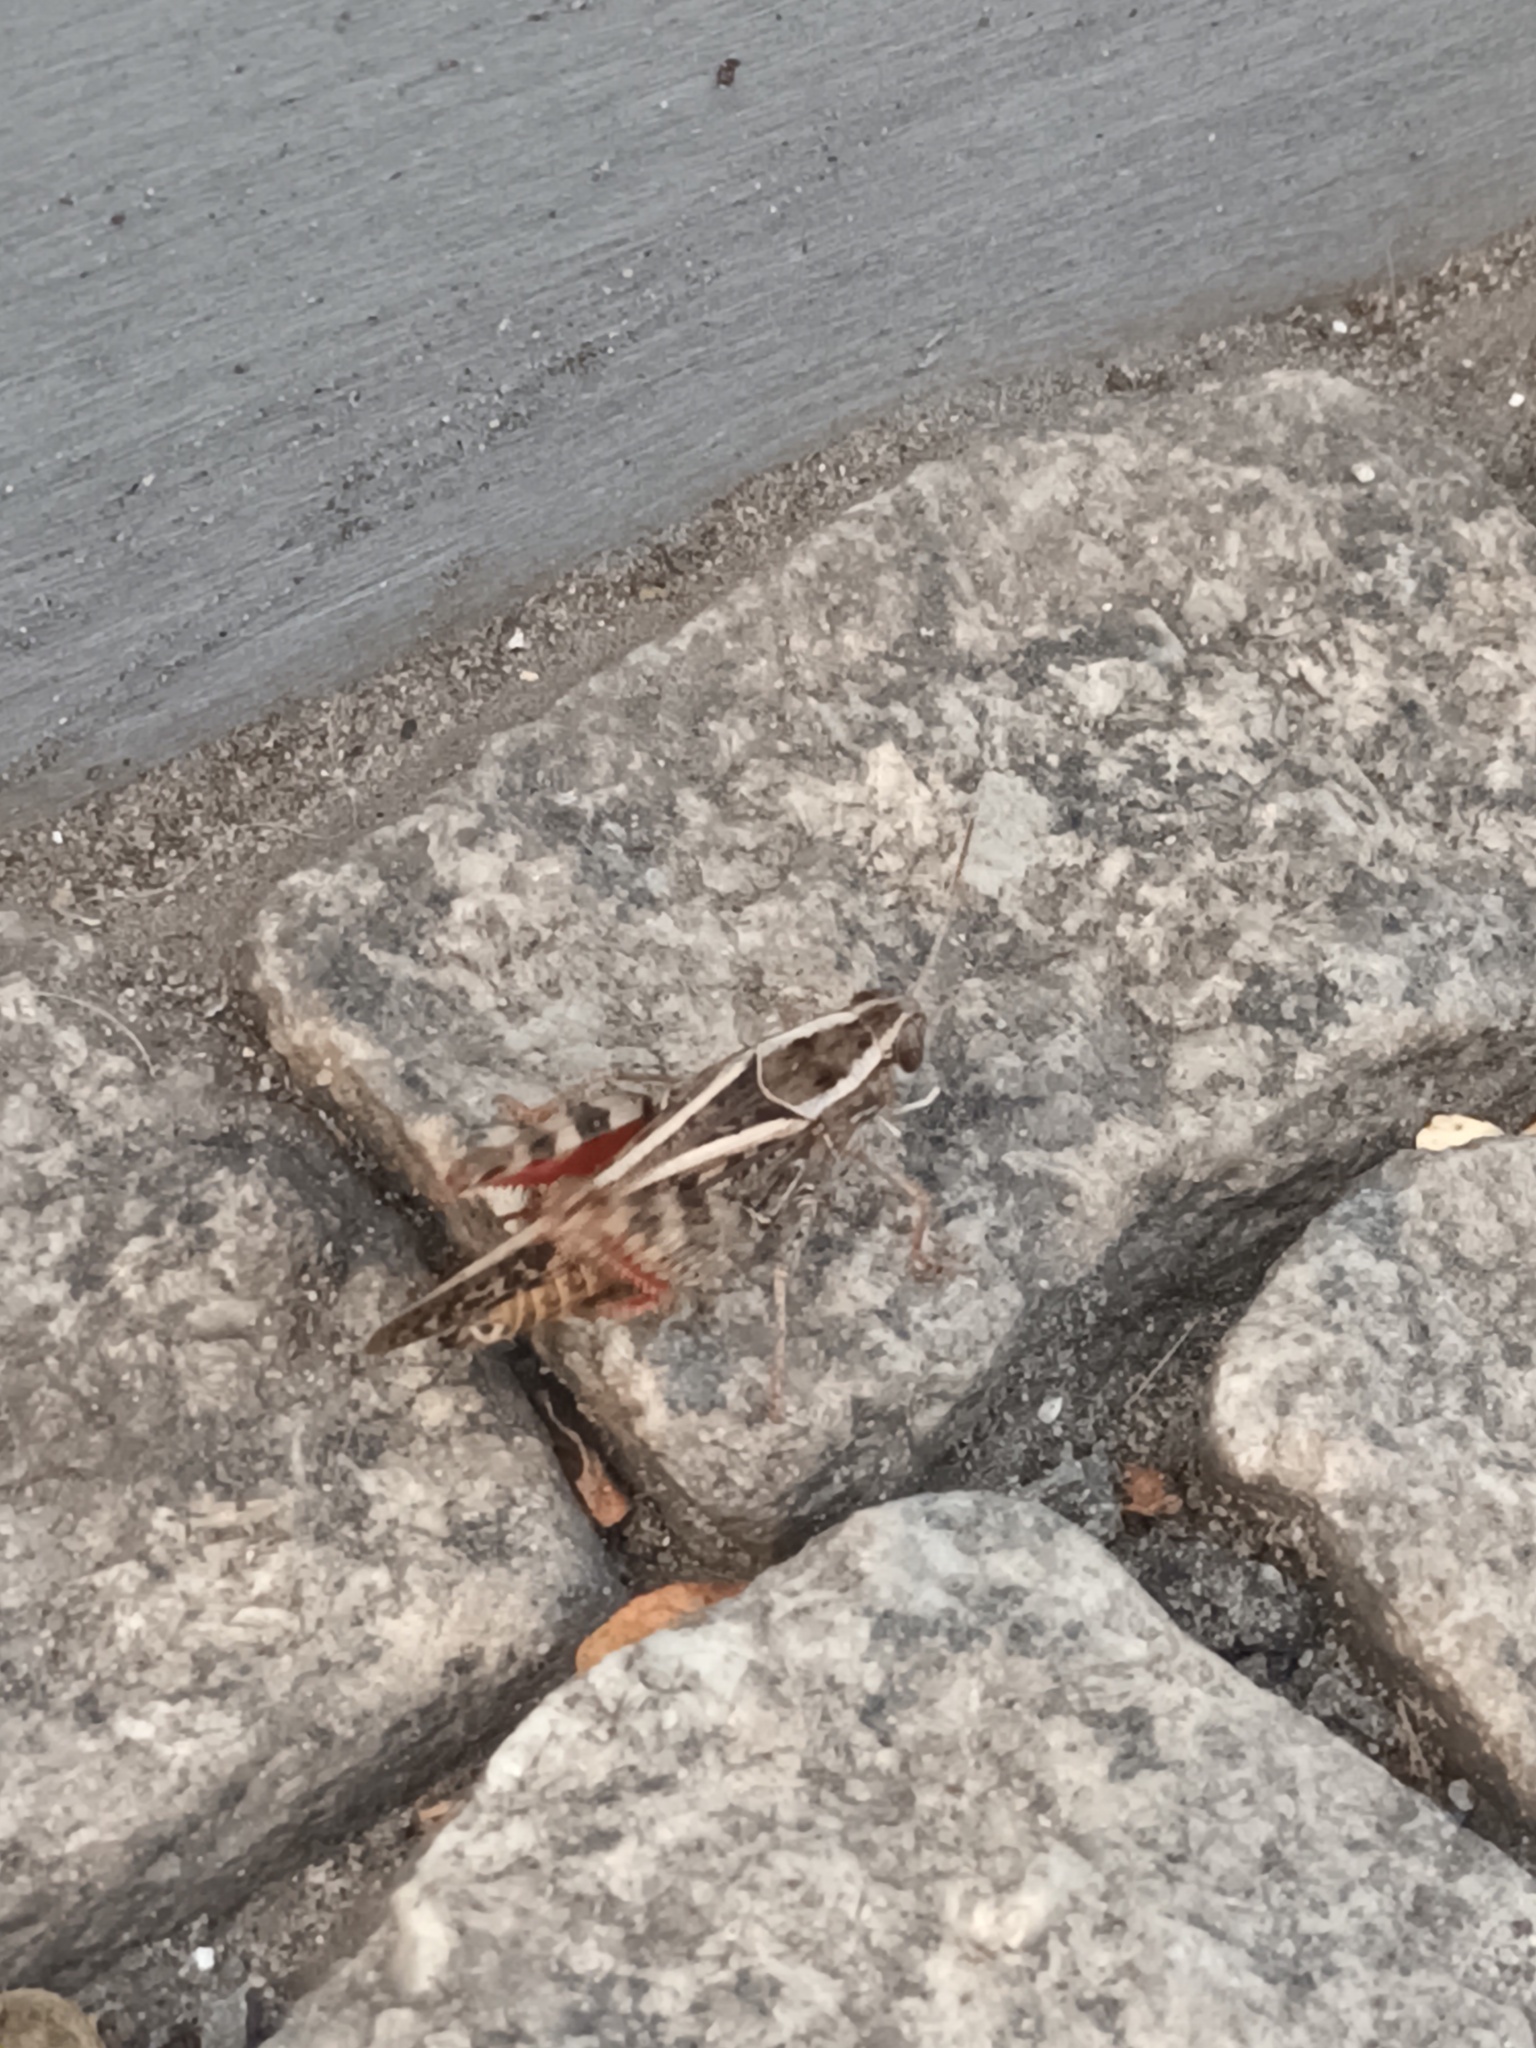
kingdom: Animalia
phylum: Arthropoda
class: Insecta
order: Orthoptera
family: Acrididae
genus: Calliptamus
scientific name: Calliptamus italicus
